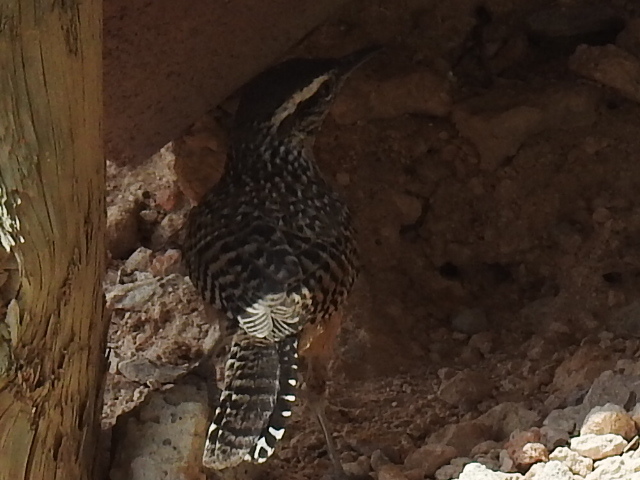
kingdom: Animalia
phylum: Chordata
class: Aves
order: Passeriformes
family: Troglodytidae
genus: Campylorhynchus
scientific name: Campylorhynchus brunneicapillus
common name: Cactus wren
